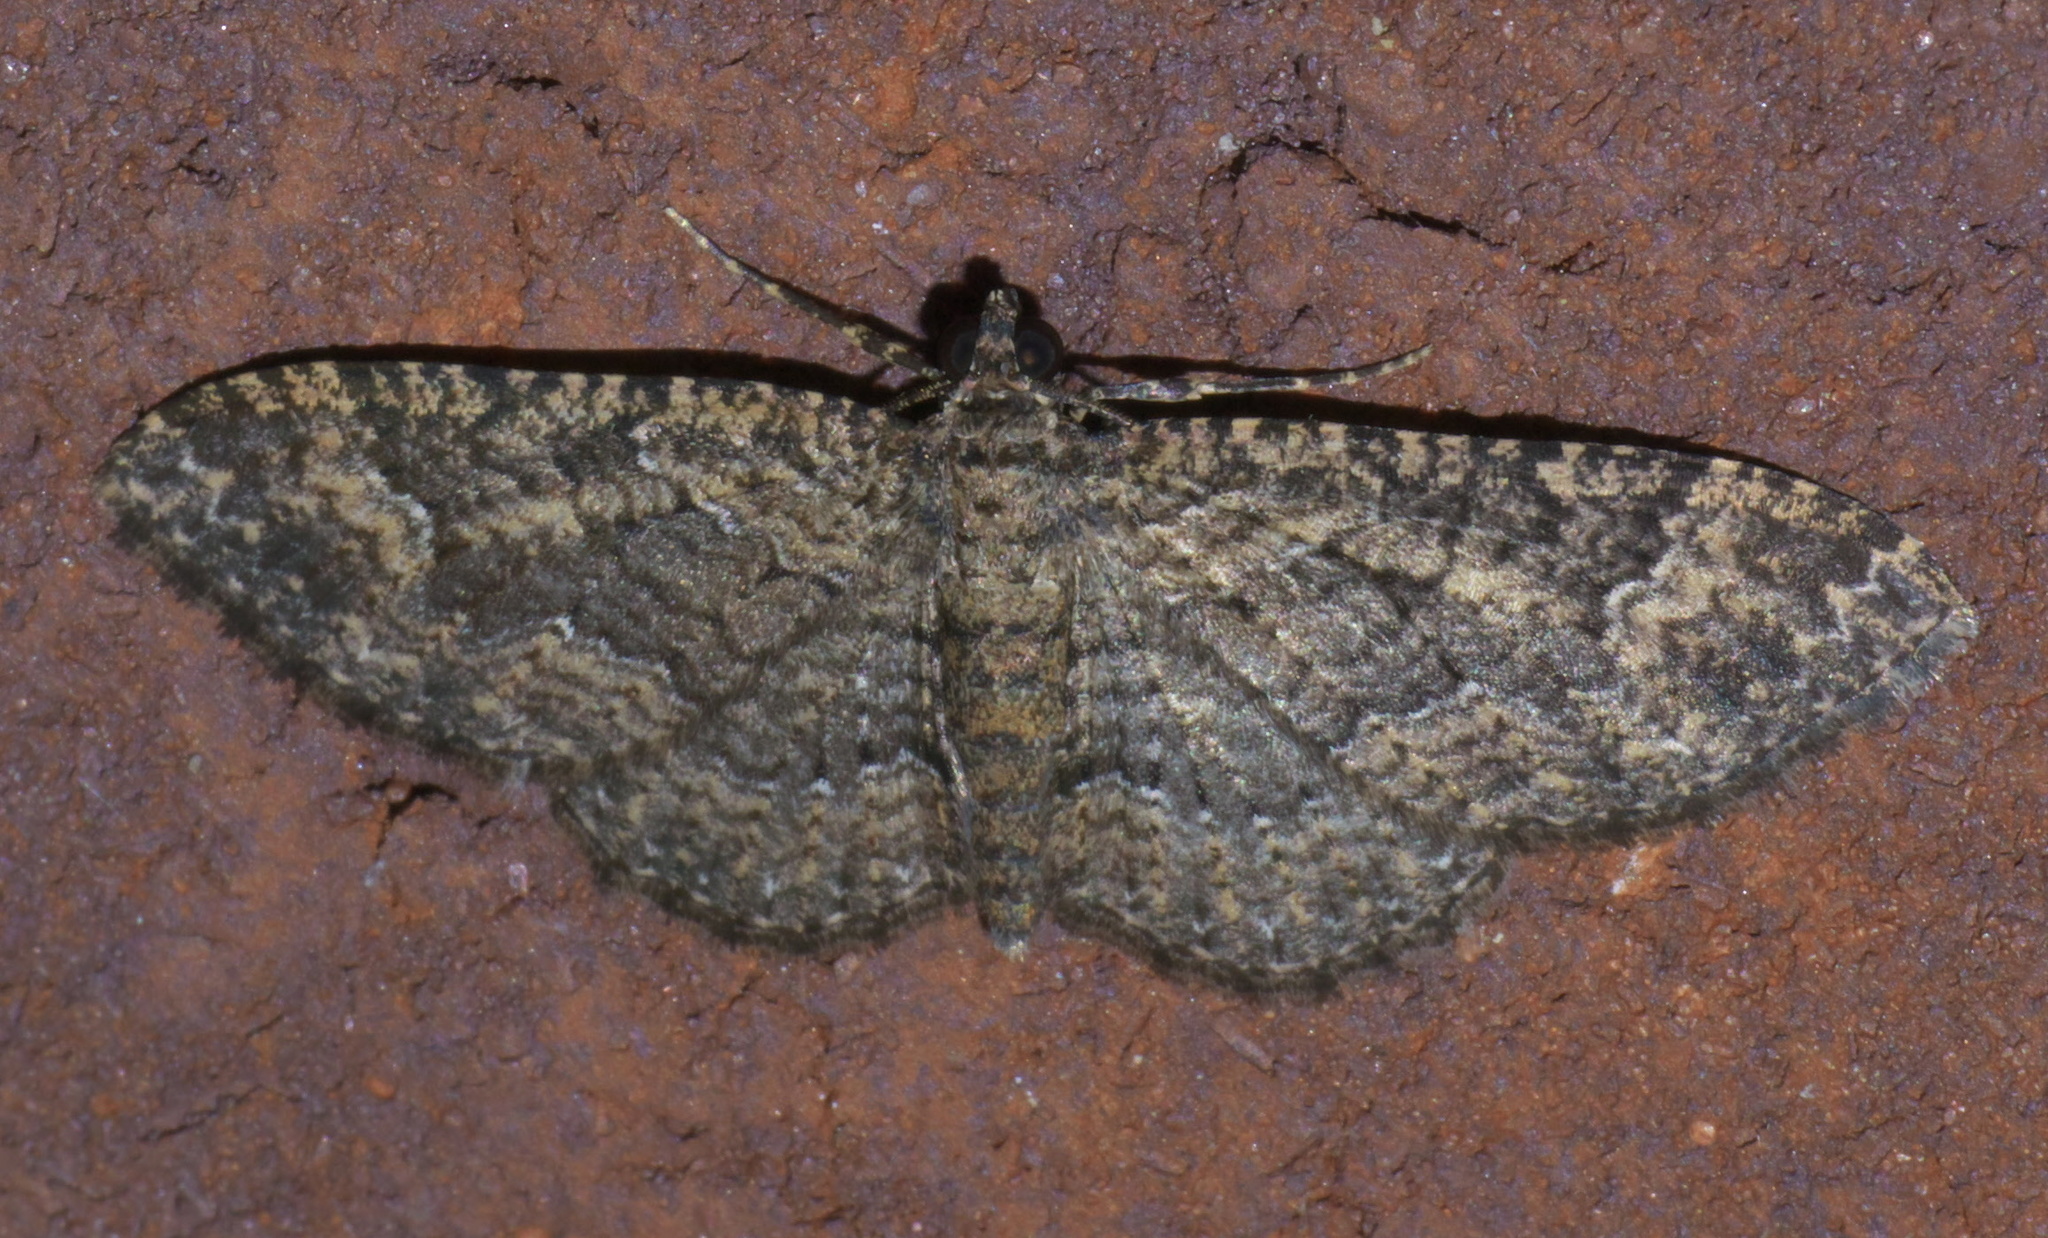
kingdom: Animalia
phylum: Arthropoda
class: Insecta
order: Lepidoptera
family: Geometridae
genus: Disclisioprocta
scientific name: Disclisioprocta stellata
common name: Somber carpet
